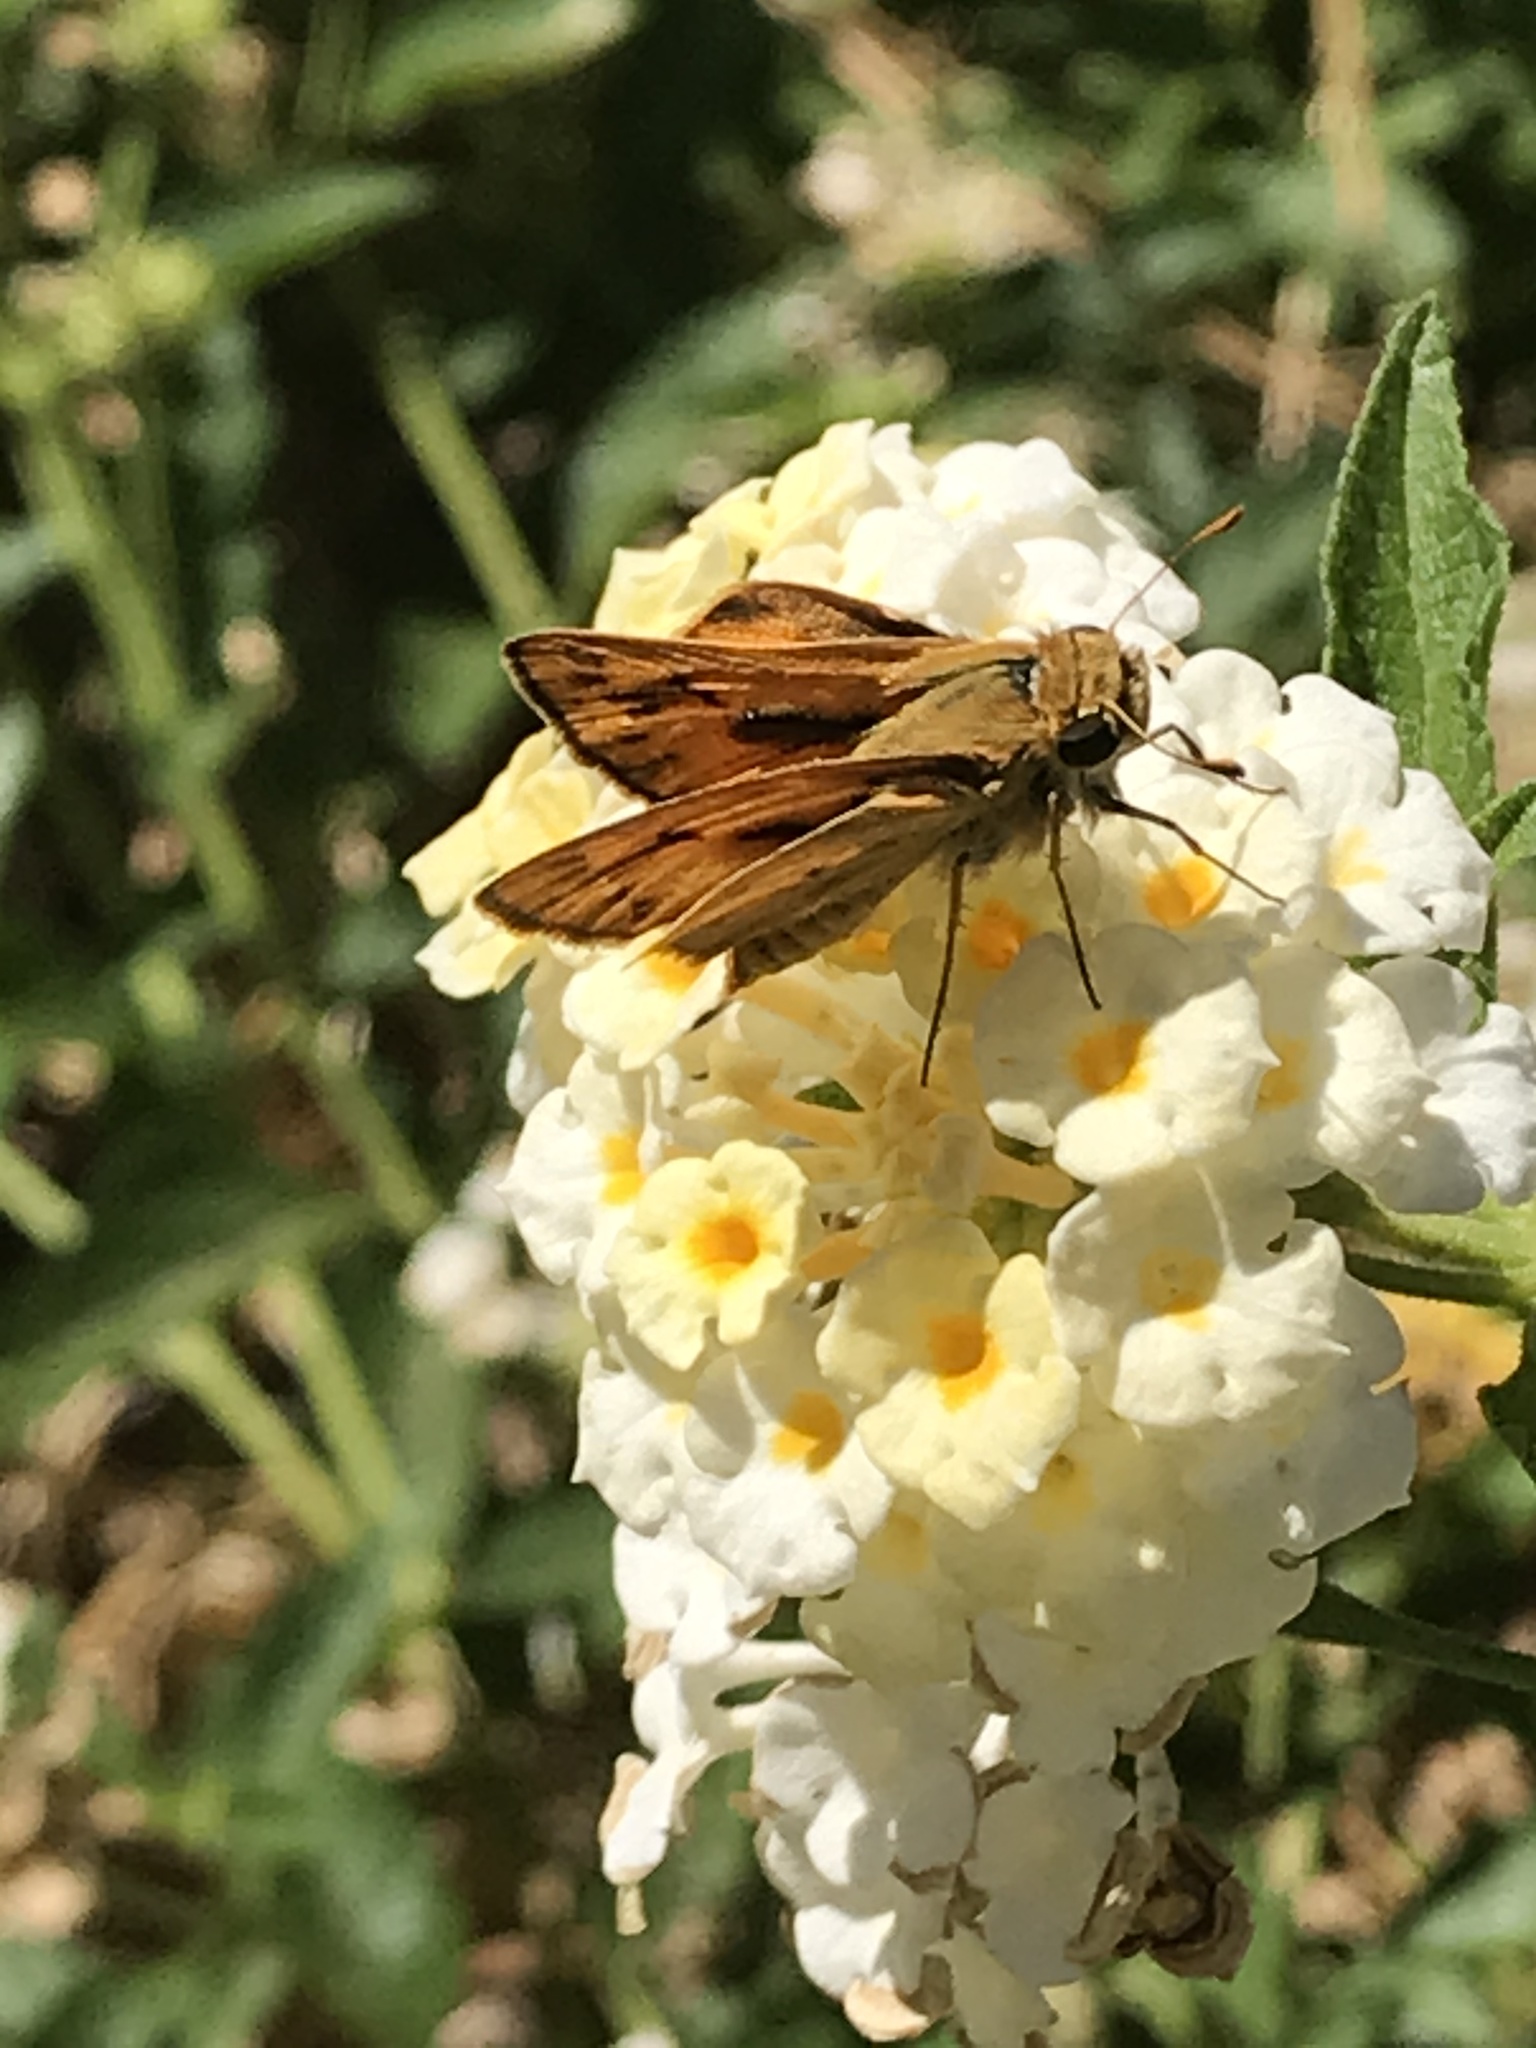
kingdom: Animalia
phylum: Arthropoda
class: Insecta
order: Lepidoptera
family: Hesperiidae
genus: Hylephila
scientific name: Hylephila phyleus
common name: Fiery skipper
